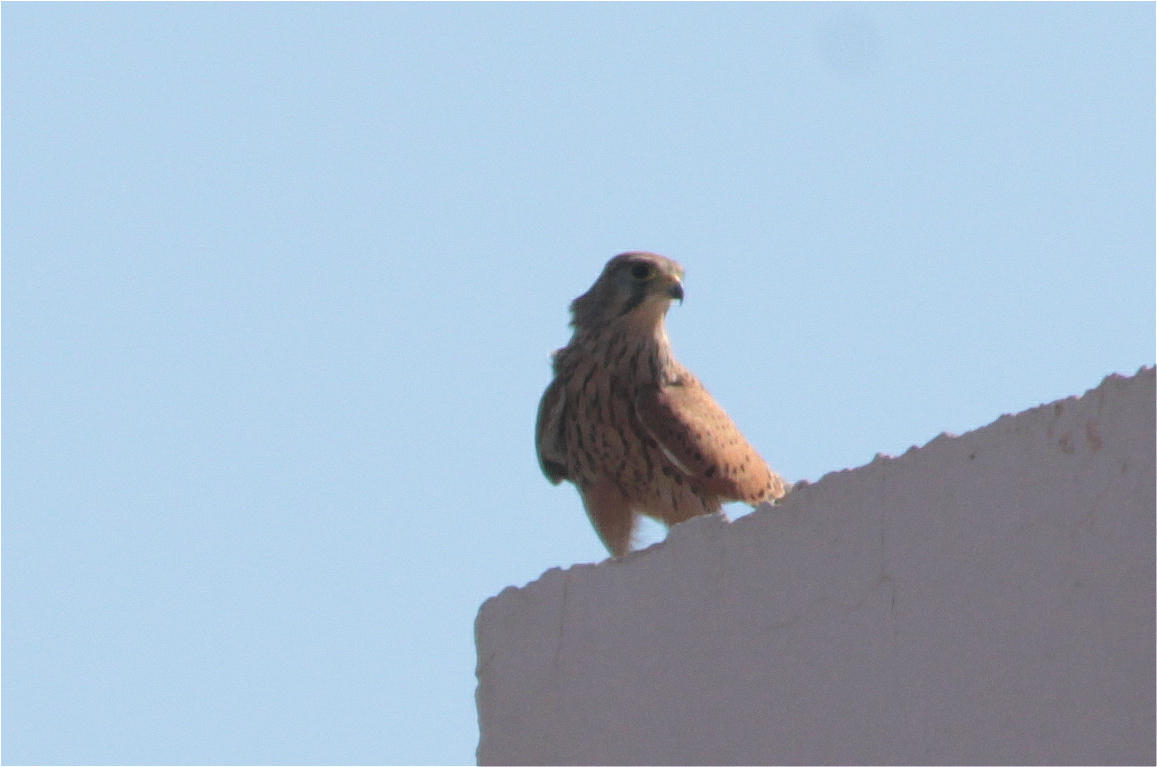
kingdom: Animalia
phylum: Chordata
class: Aves
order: Falconiformes
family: Falconidae
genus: Falco
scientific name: Falco tinnunculus
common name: Common kestrel
